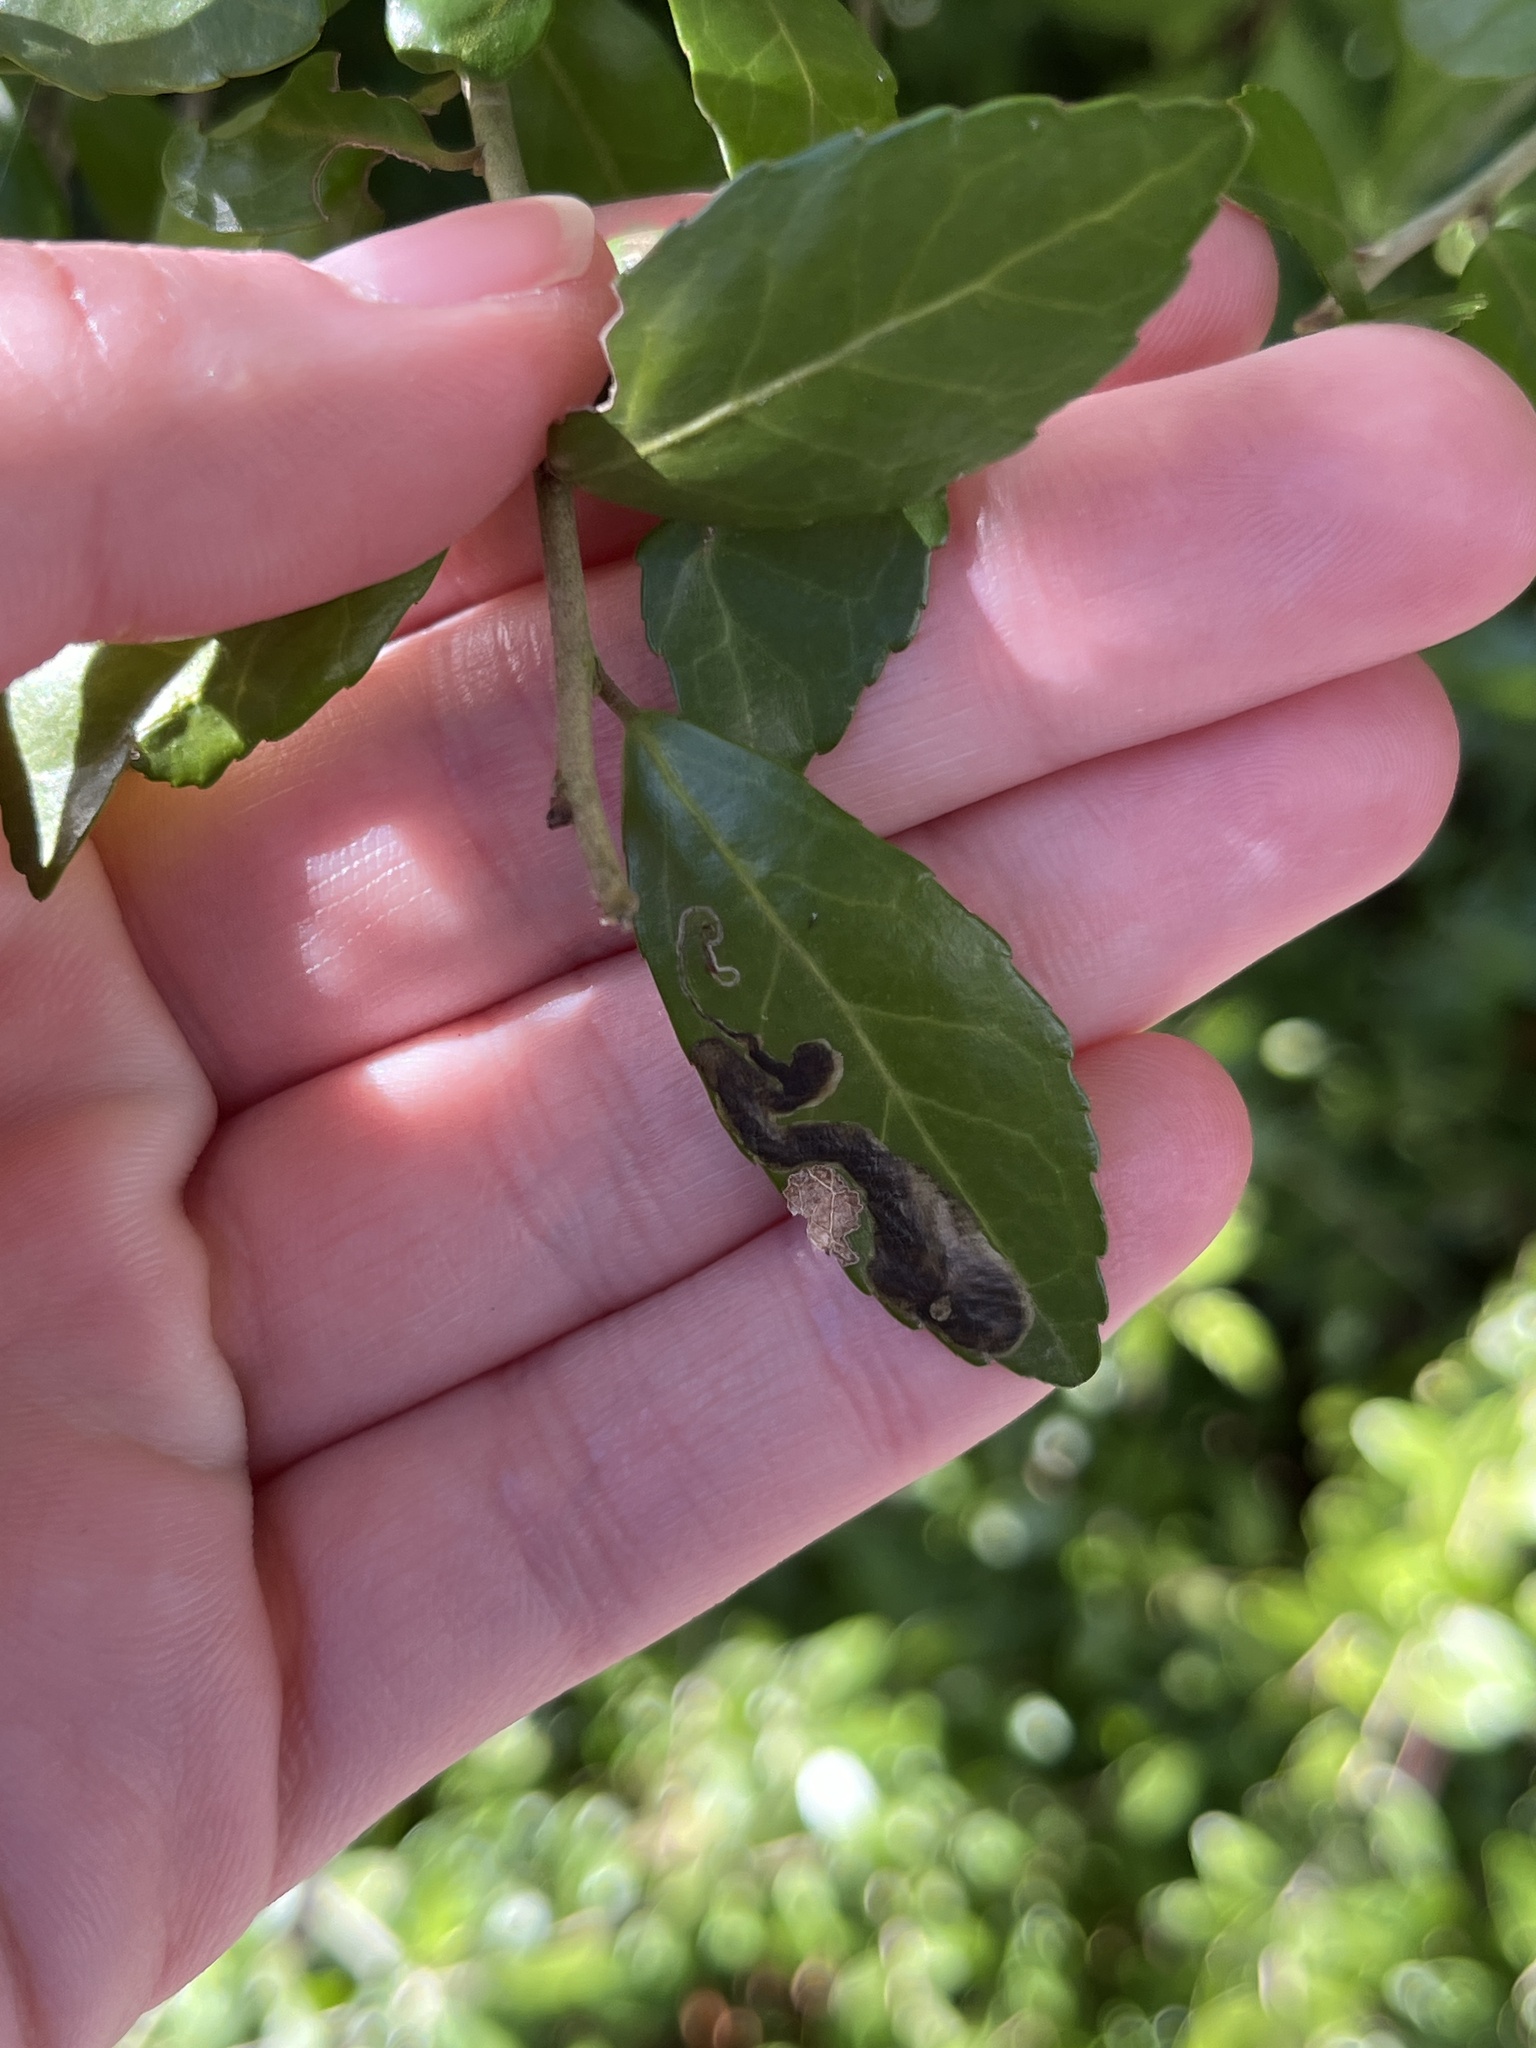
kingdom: Animalia
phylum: Arthropoda
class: Insecta
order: Diptera
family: Agromyzidae
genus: Phytomyza
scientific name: Phytomyza vomitoriae
